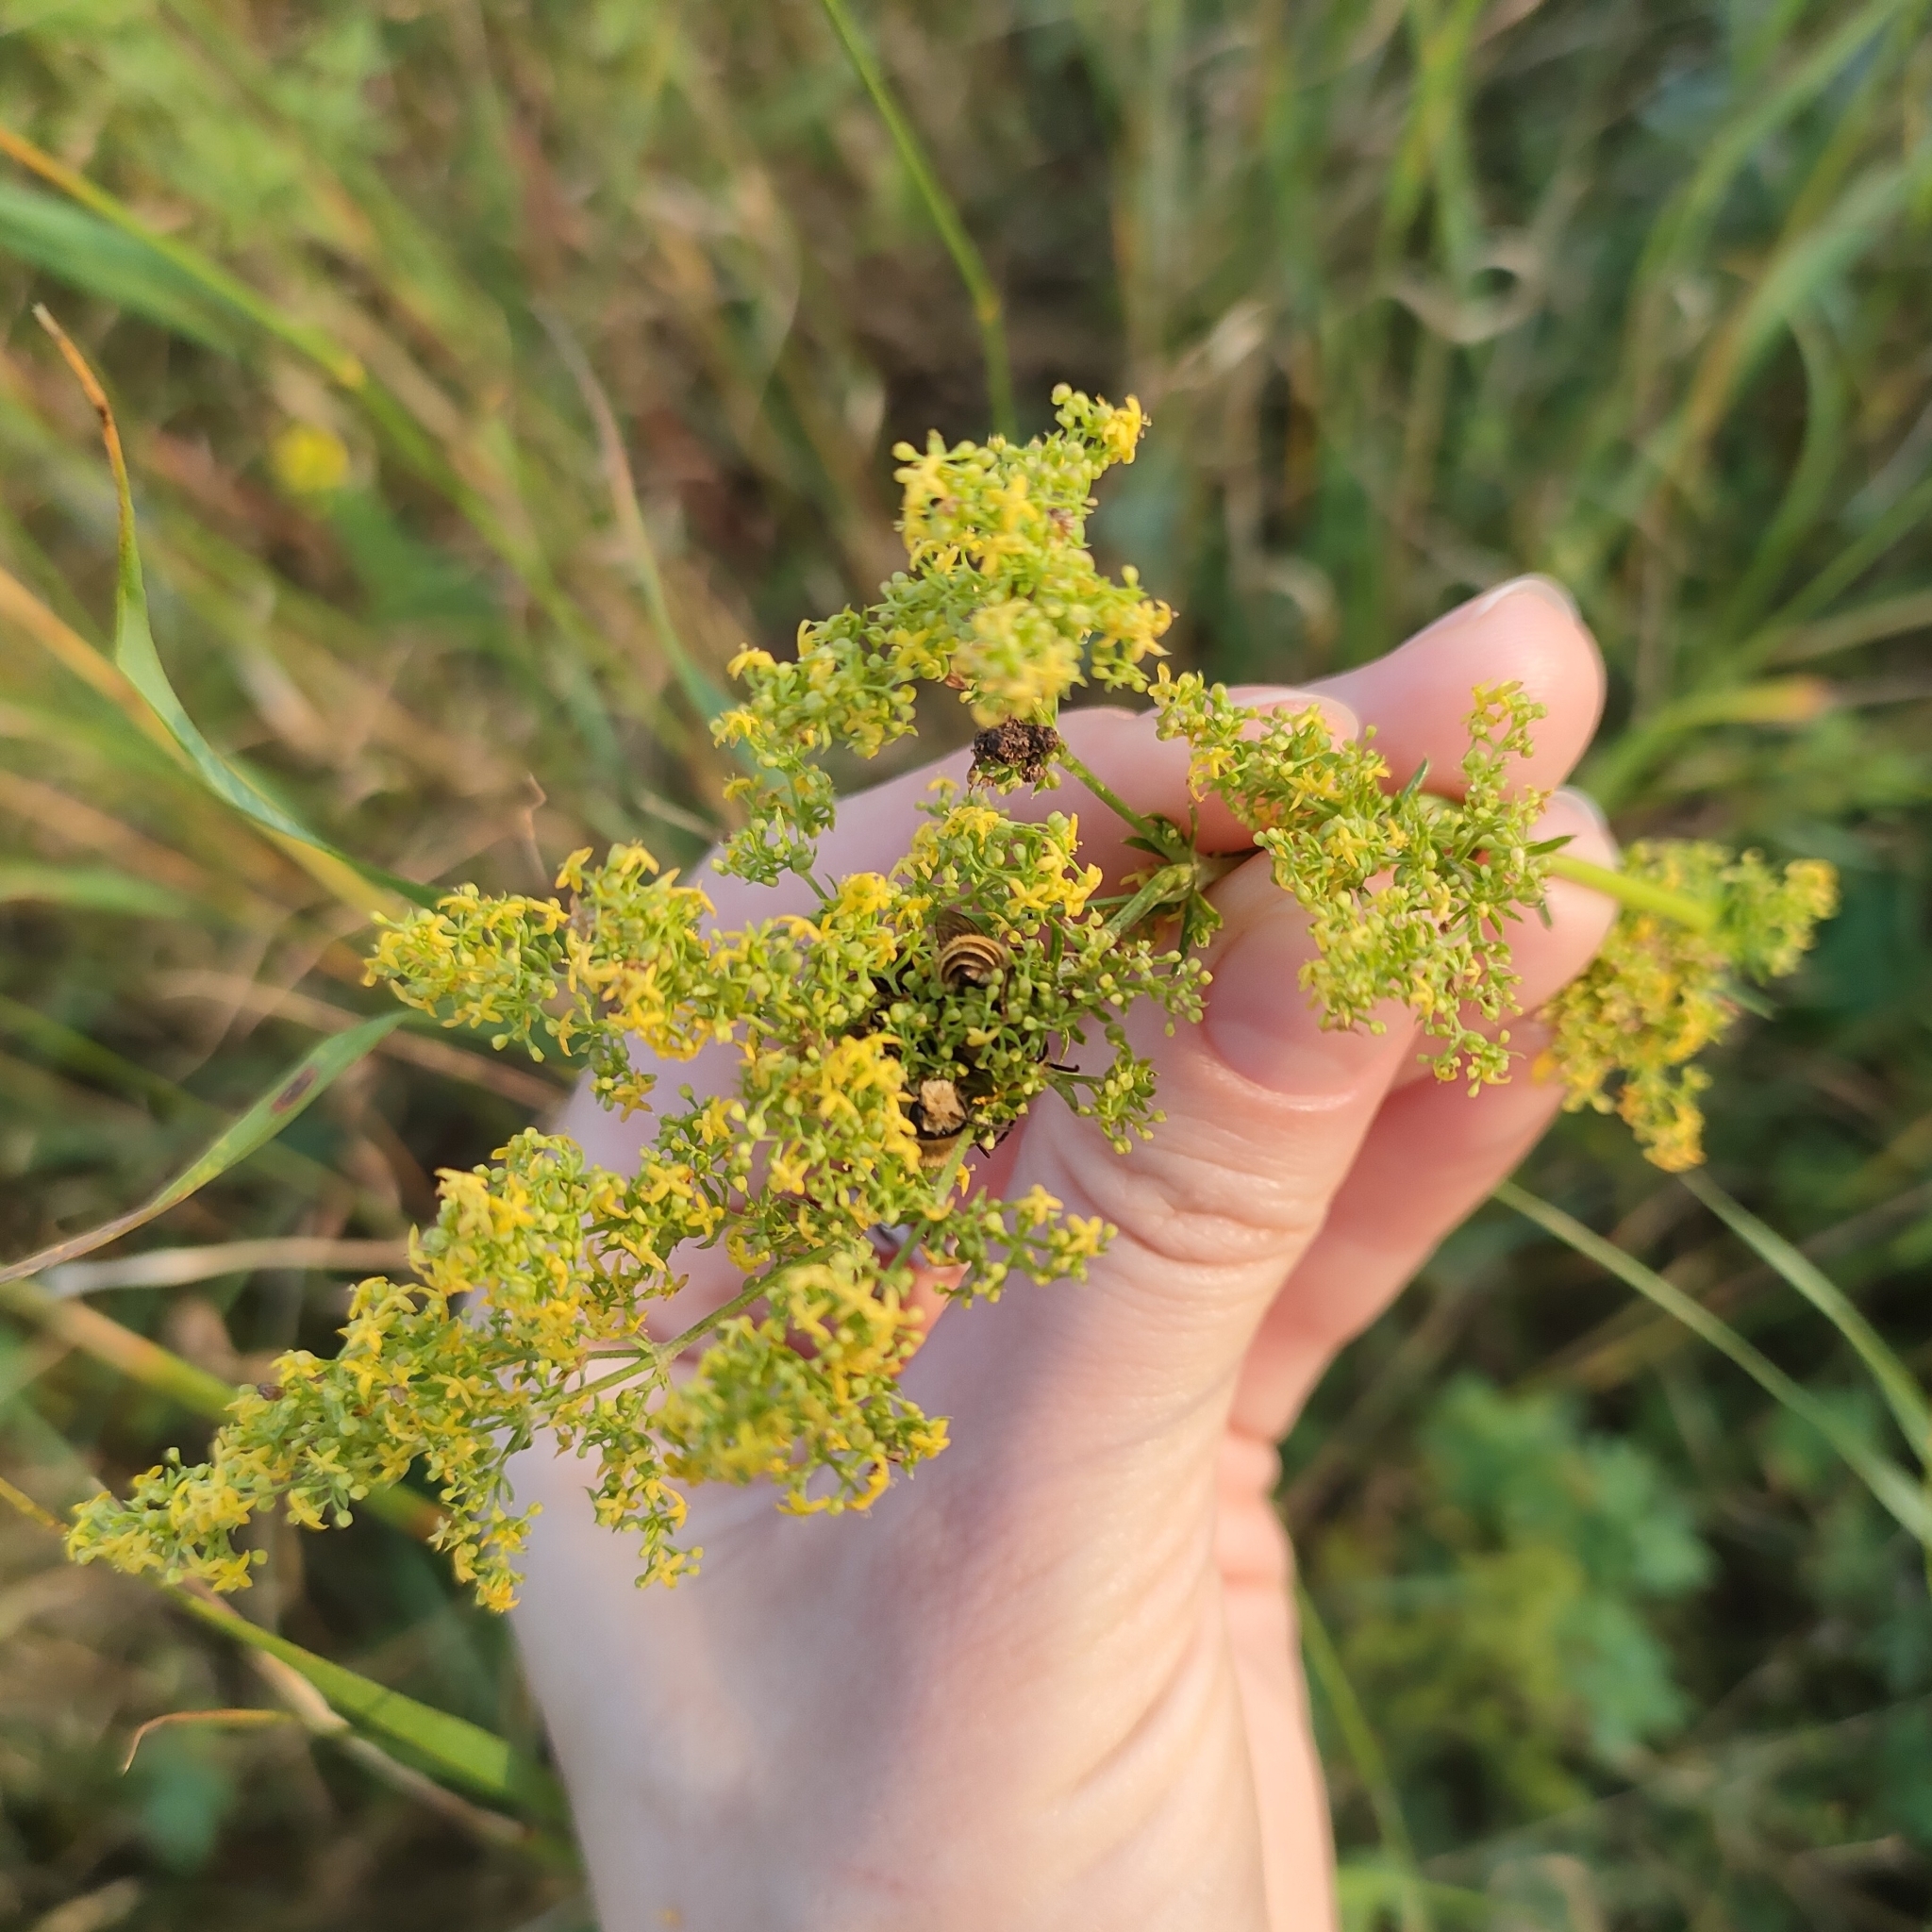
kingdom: Plantae
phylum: Tracheophyta
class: Magnoliopsida
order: Gentianales
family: Rubiaceae
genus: Galium
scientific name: Galium verum
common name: Lady's bedstraw
